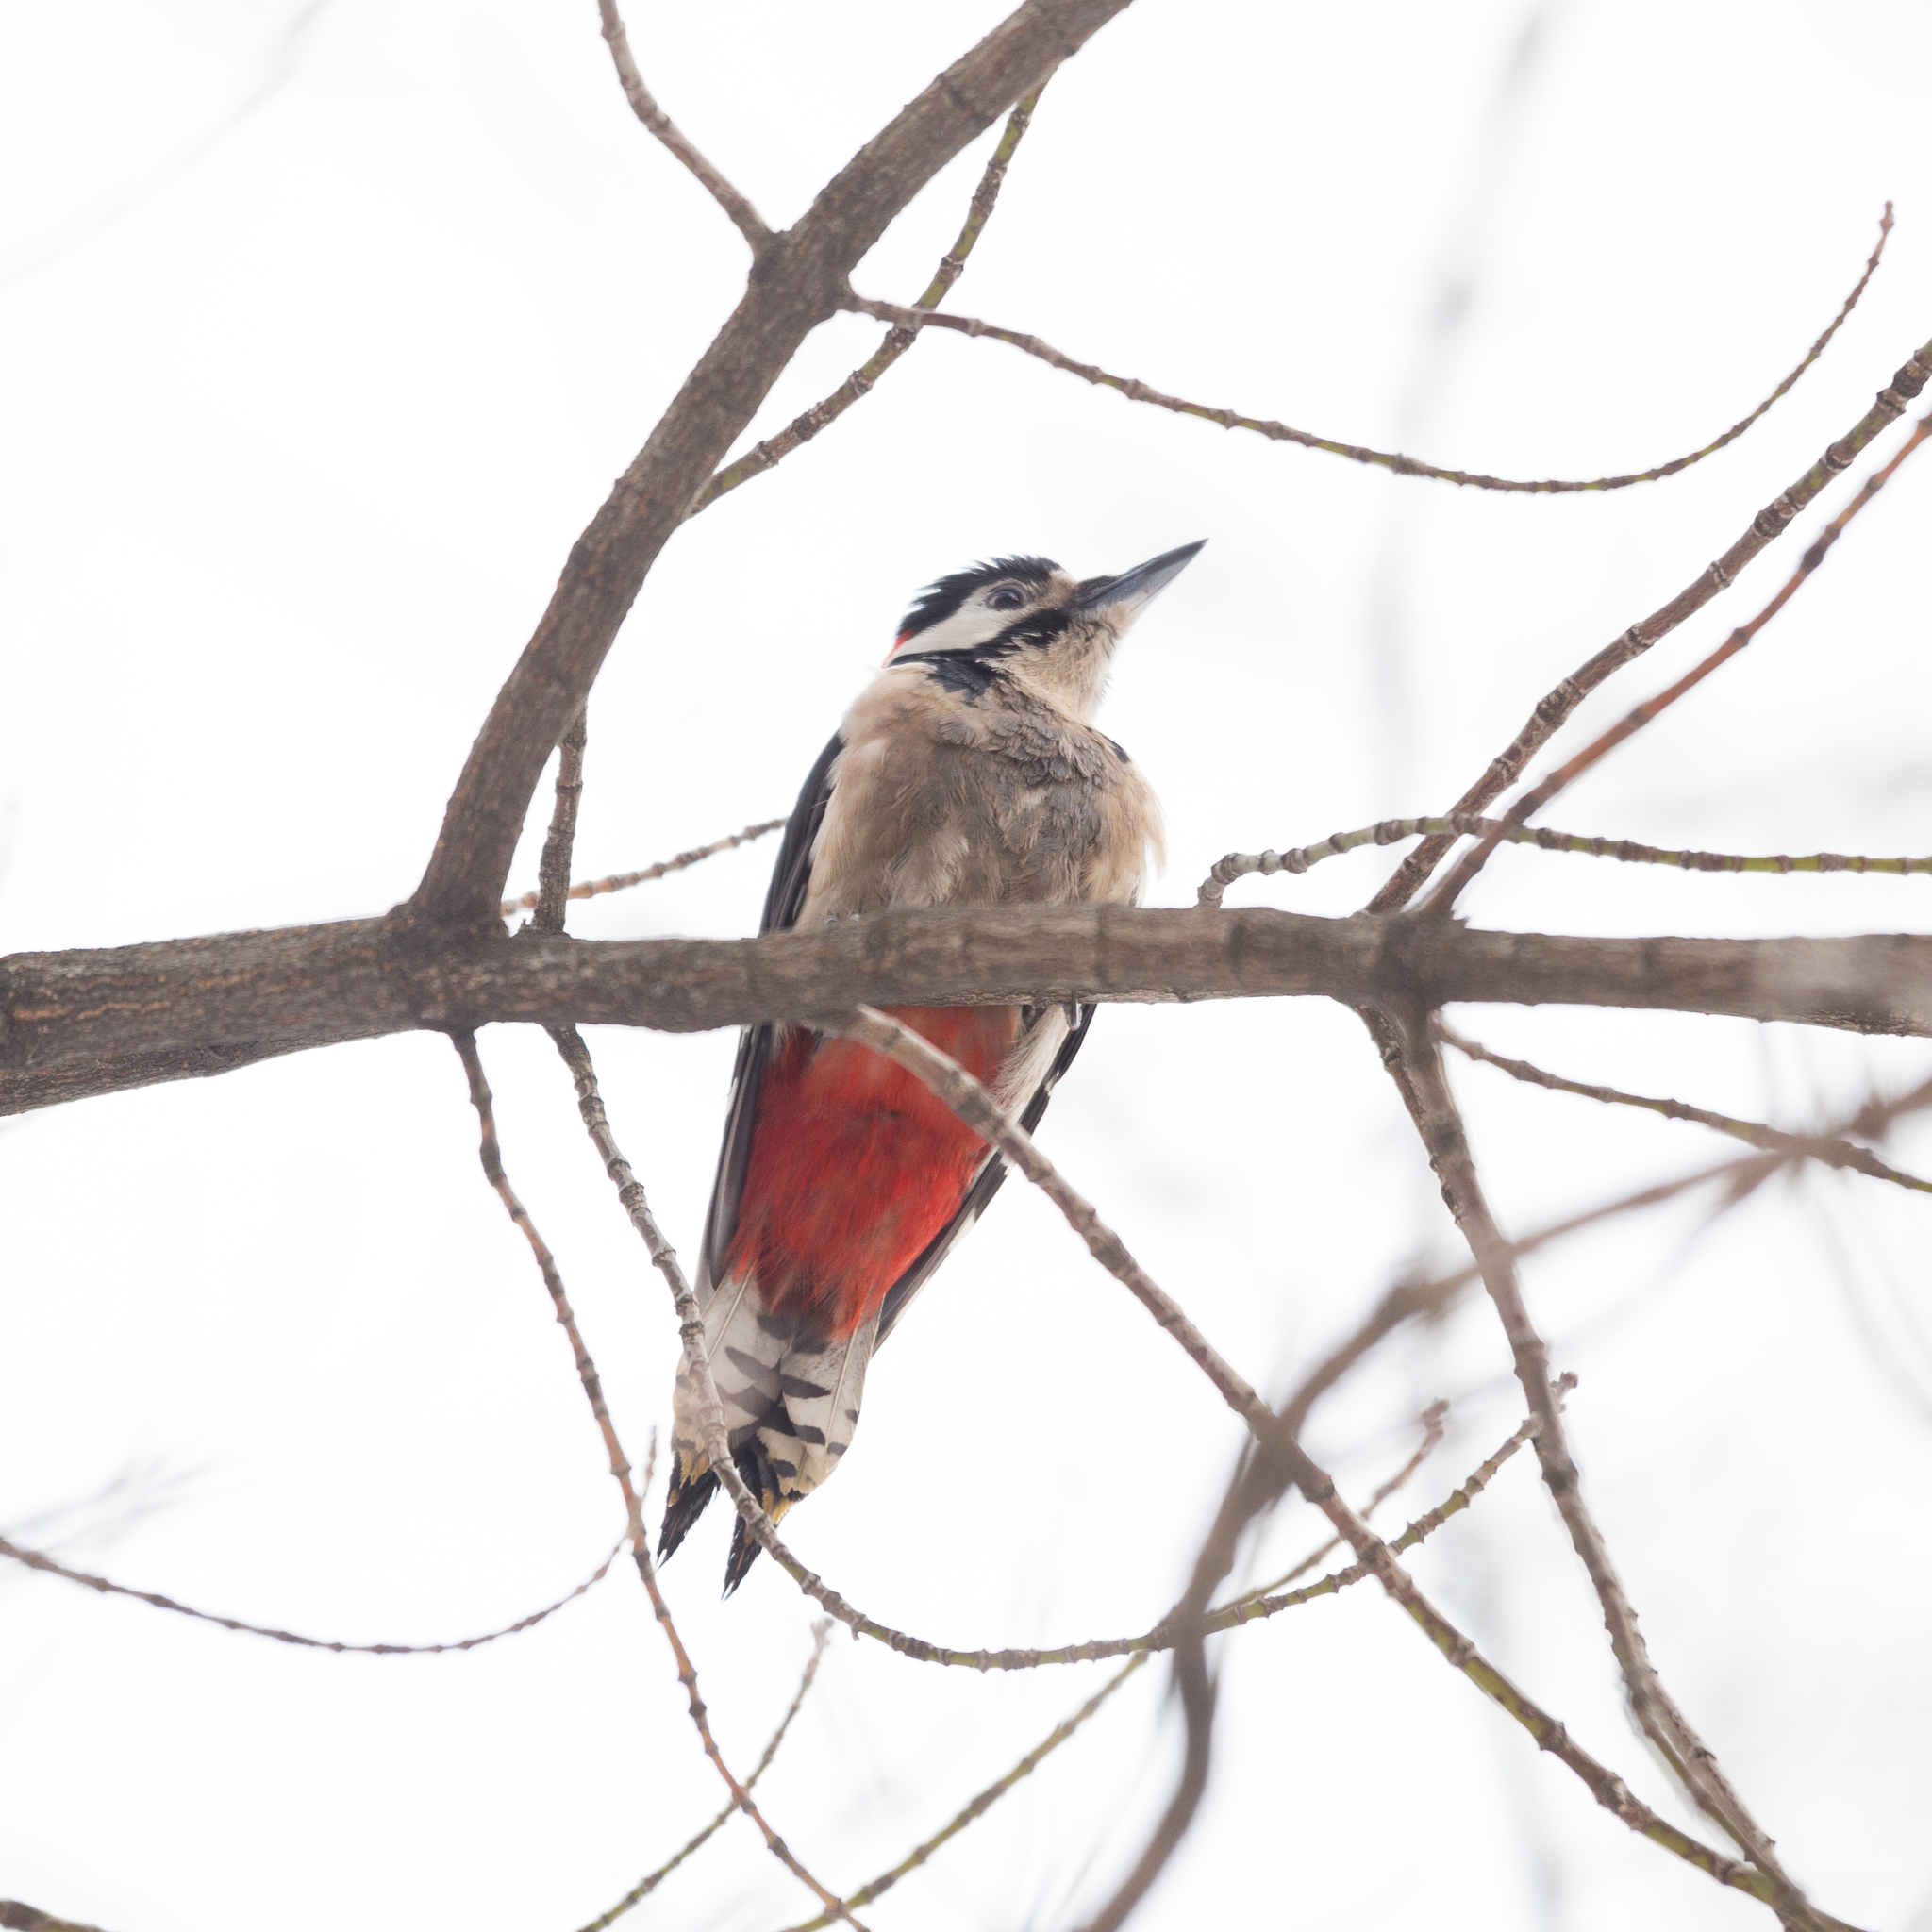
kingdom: Animalia
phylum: Chordata
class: Aves
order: Piciformes
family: Picidae
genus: Dendrocopos
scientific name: Dendrocopos major
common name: Great spotted woodpecker
